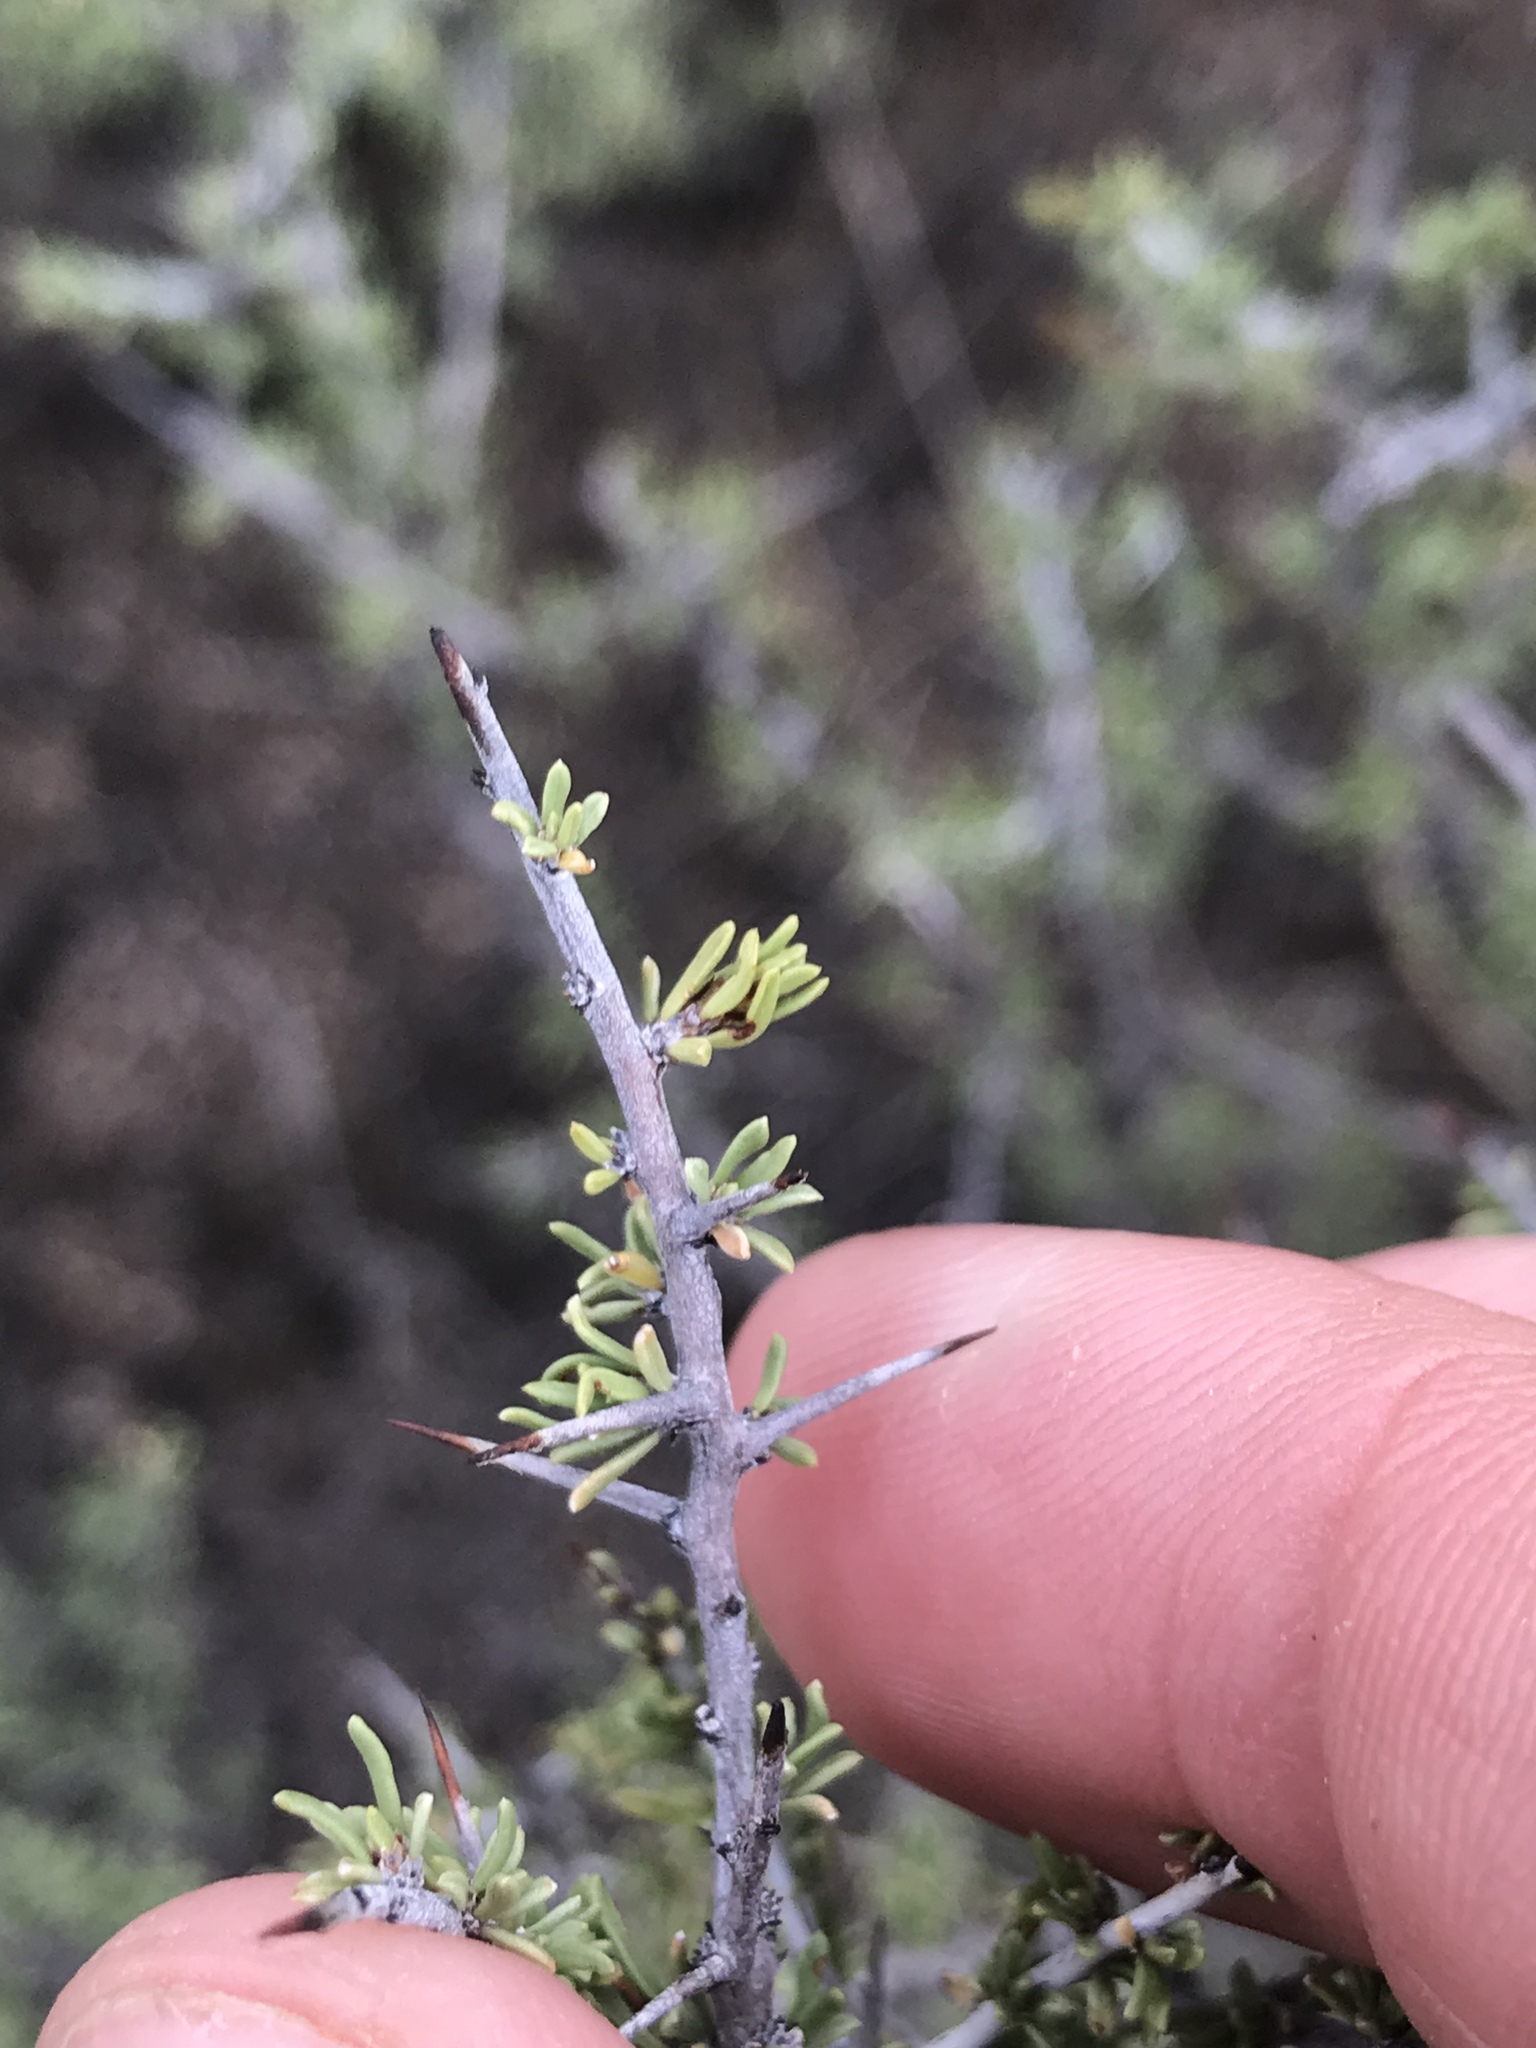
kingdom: Plantae
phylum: Tracheophyta
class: Magnoliopsida
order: Rosales
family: Rhamnaceae
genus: Condalia
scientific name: Condalia ericoides
